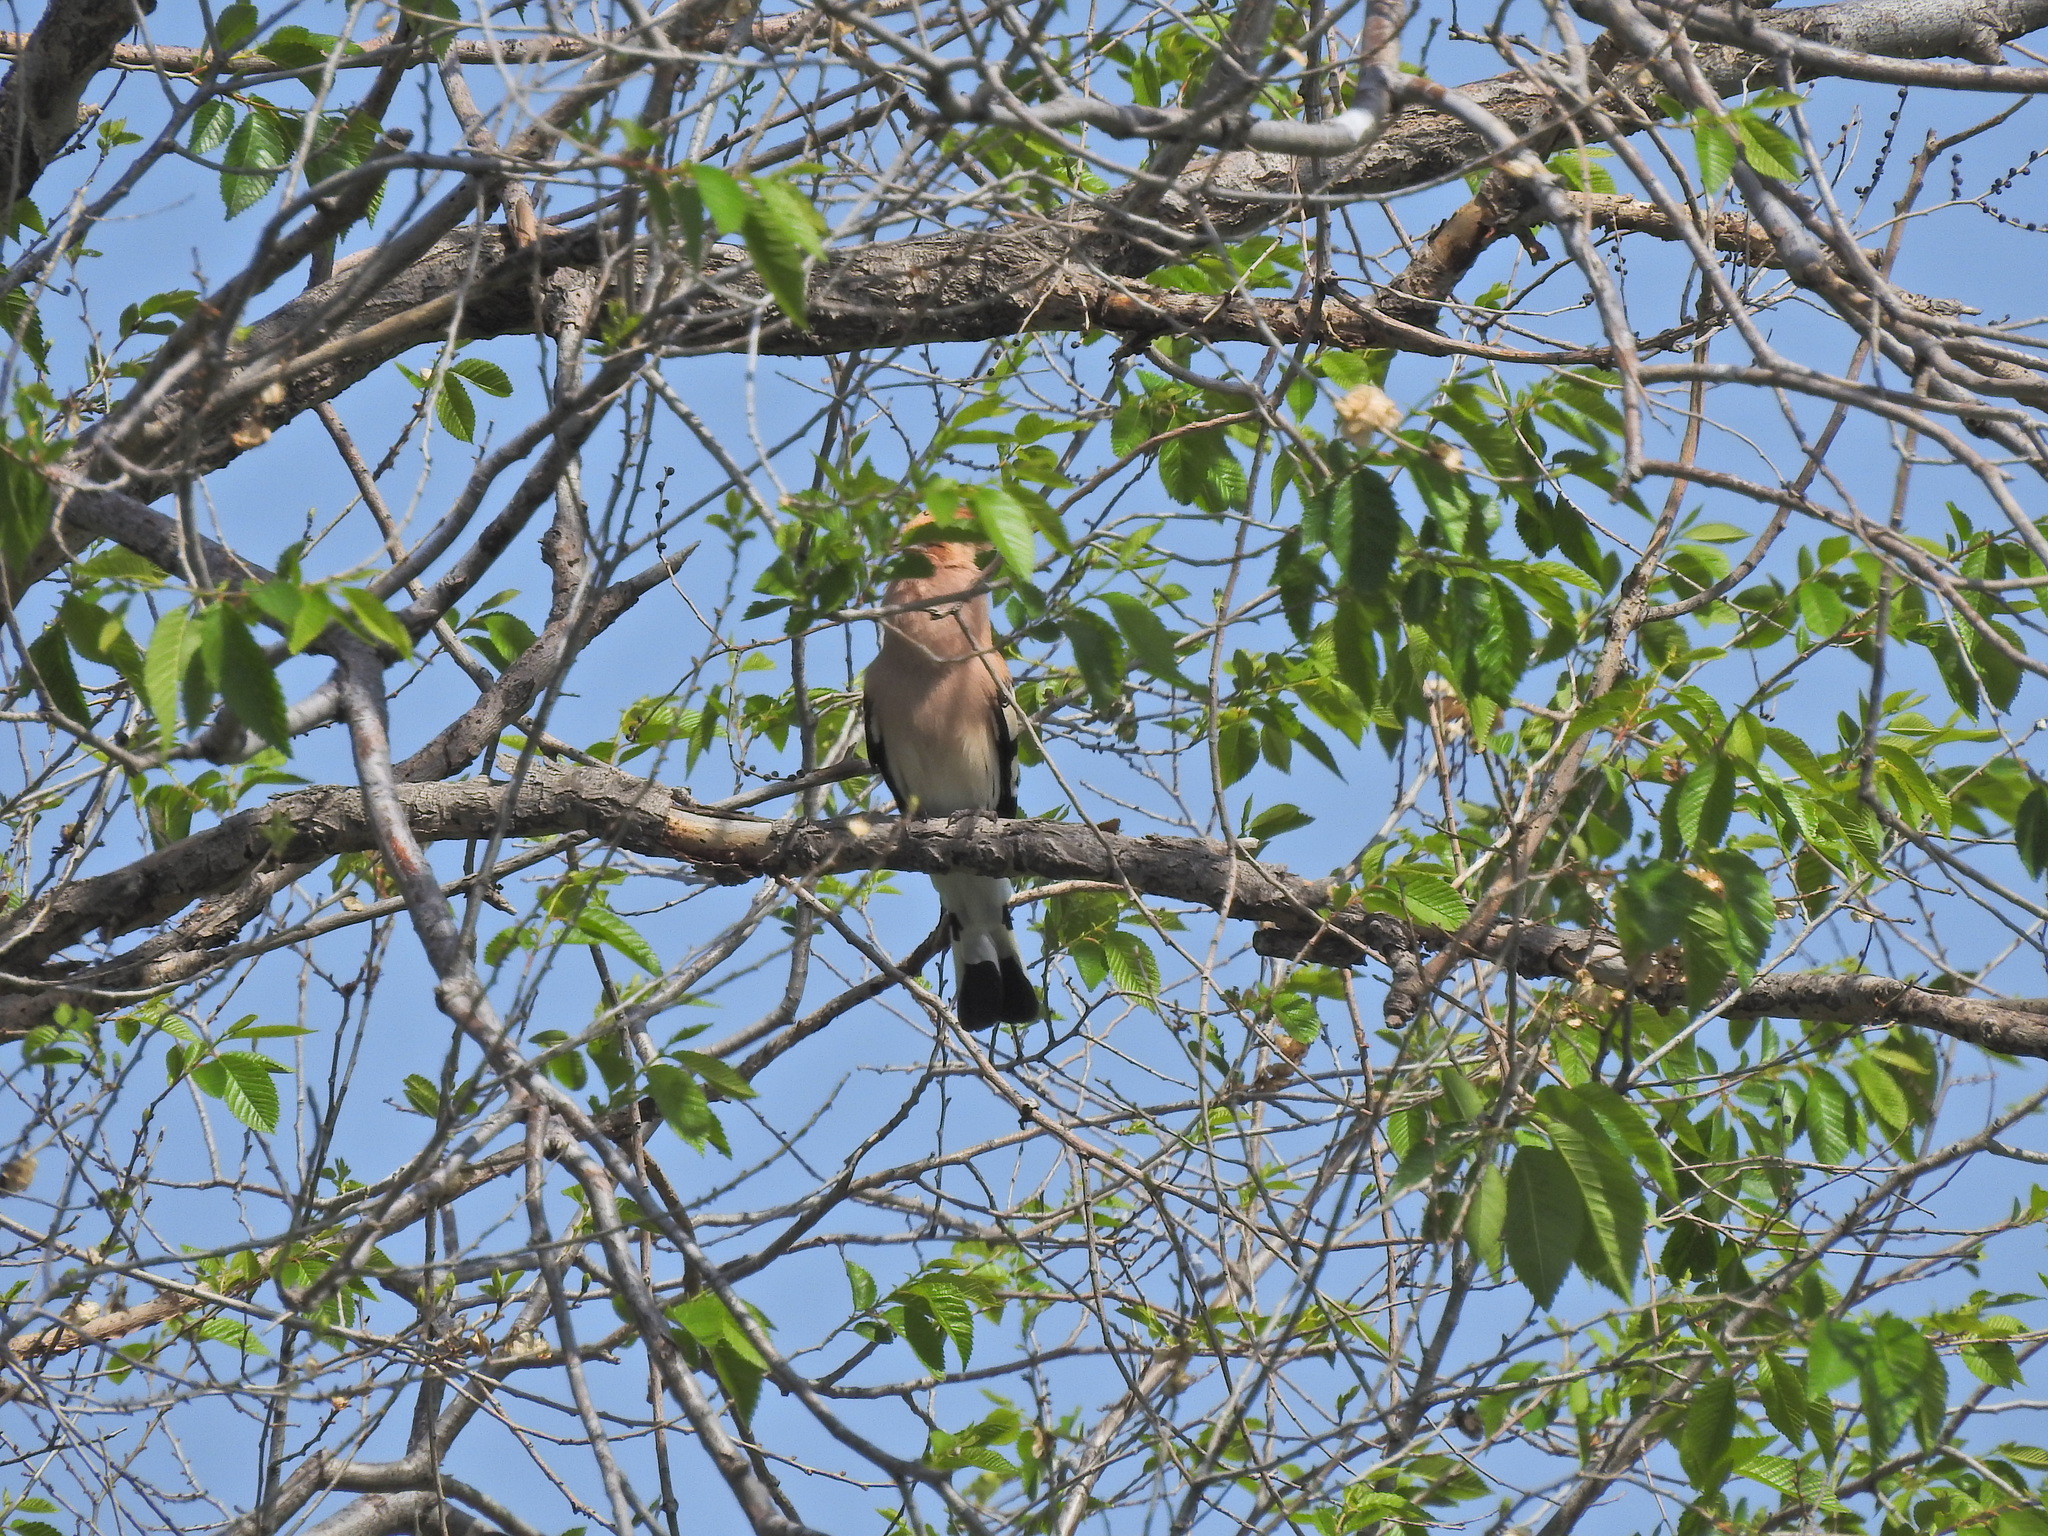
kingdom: Animalia
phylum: Chordata
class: Aves
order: Bucerotiformes
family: Upupidae
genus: Upupa
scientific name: Upupa epops
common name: Eurasian hoopoe
